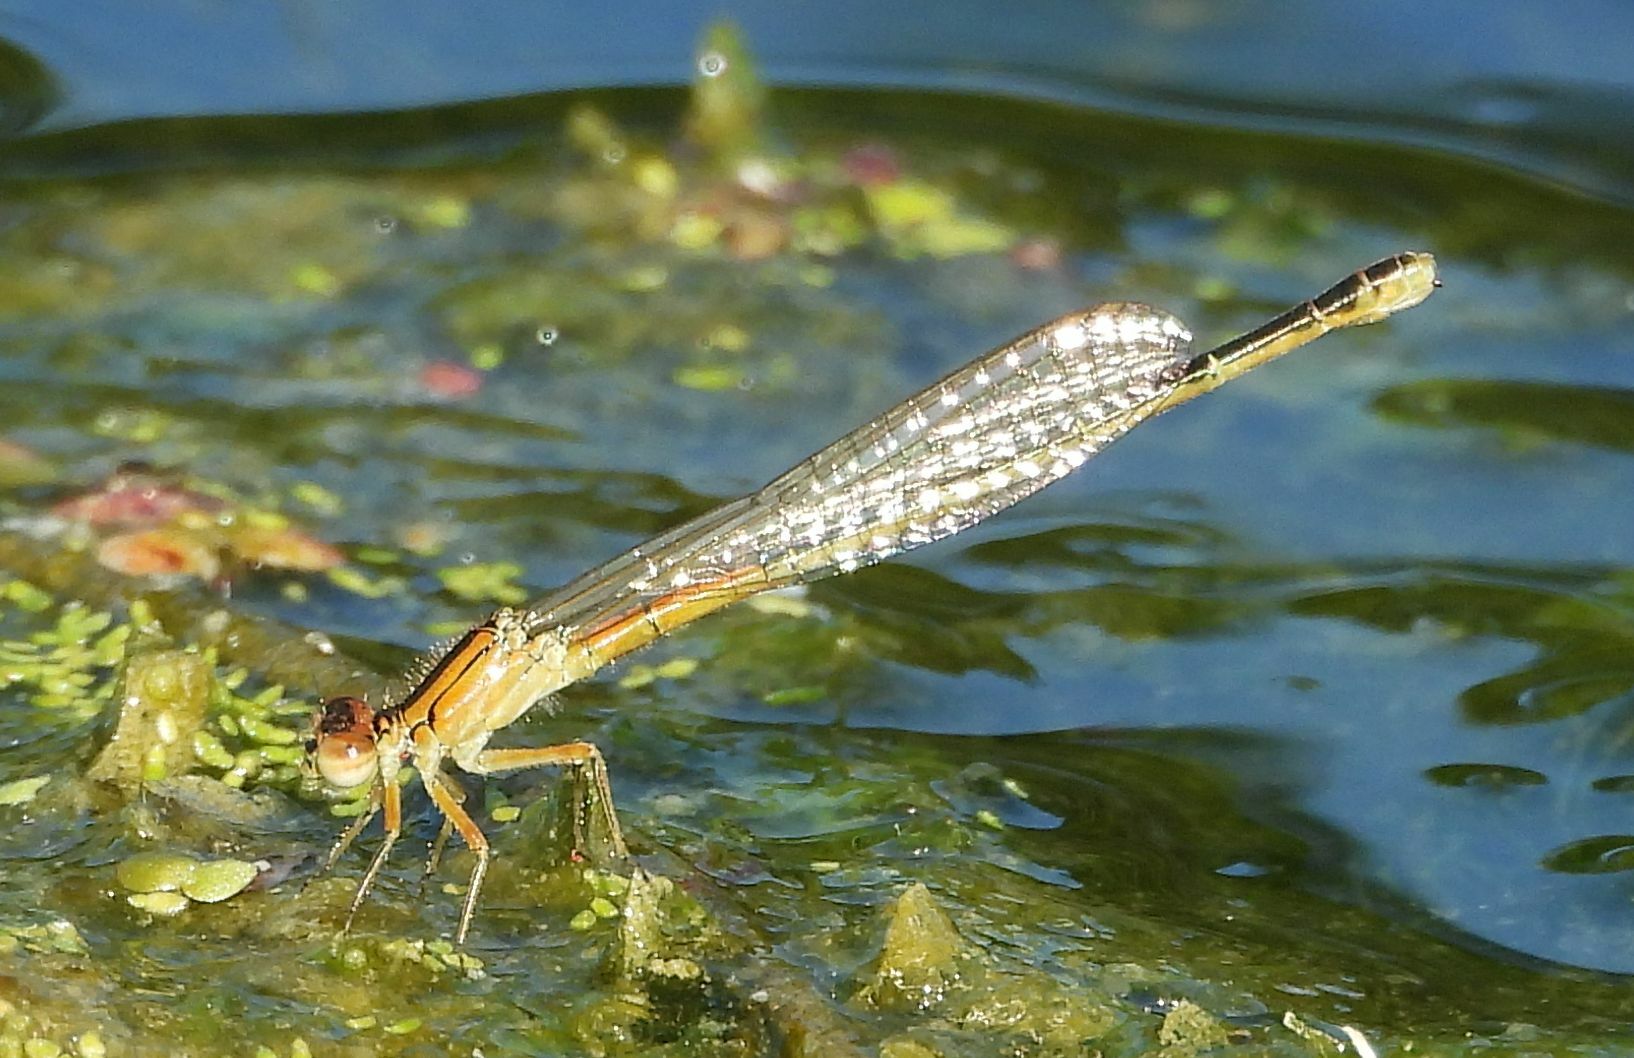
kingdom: Animalia
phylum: Arthropoda
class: Insecta
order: Odonata
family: Coenagrionidae
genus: Ischnura
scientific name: Ischnura verticalis
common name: Eastern forktail
